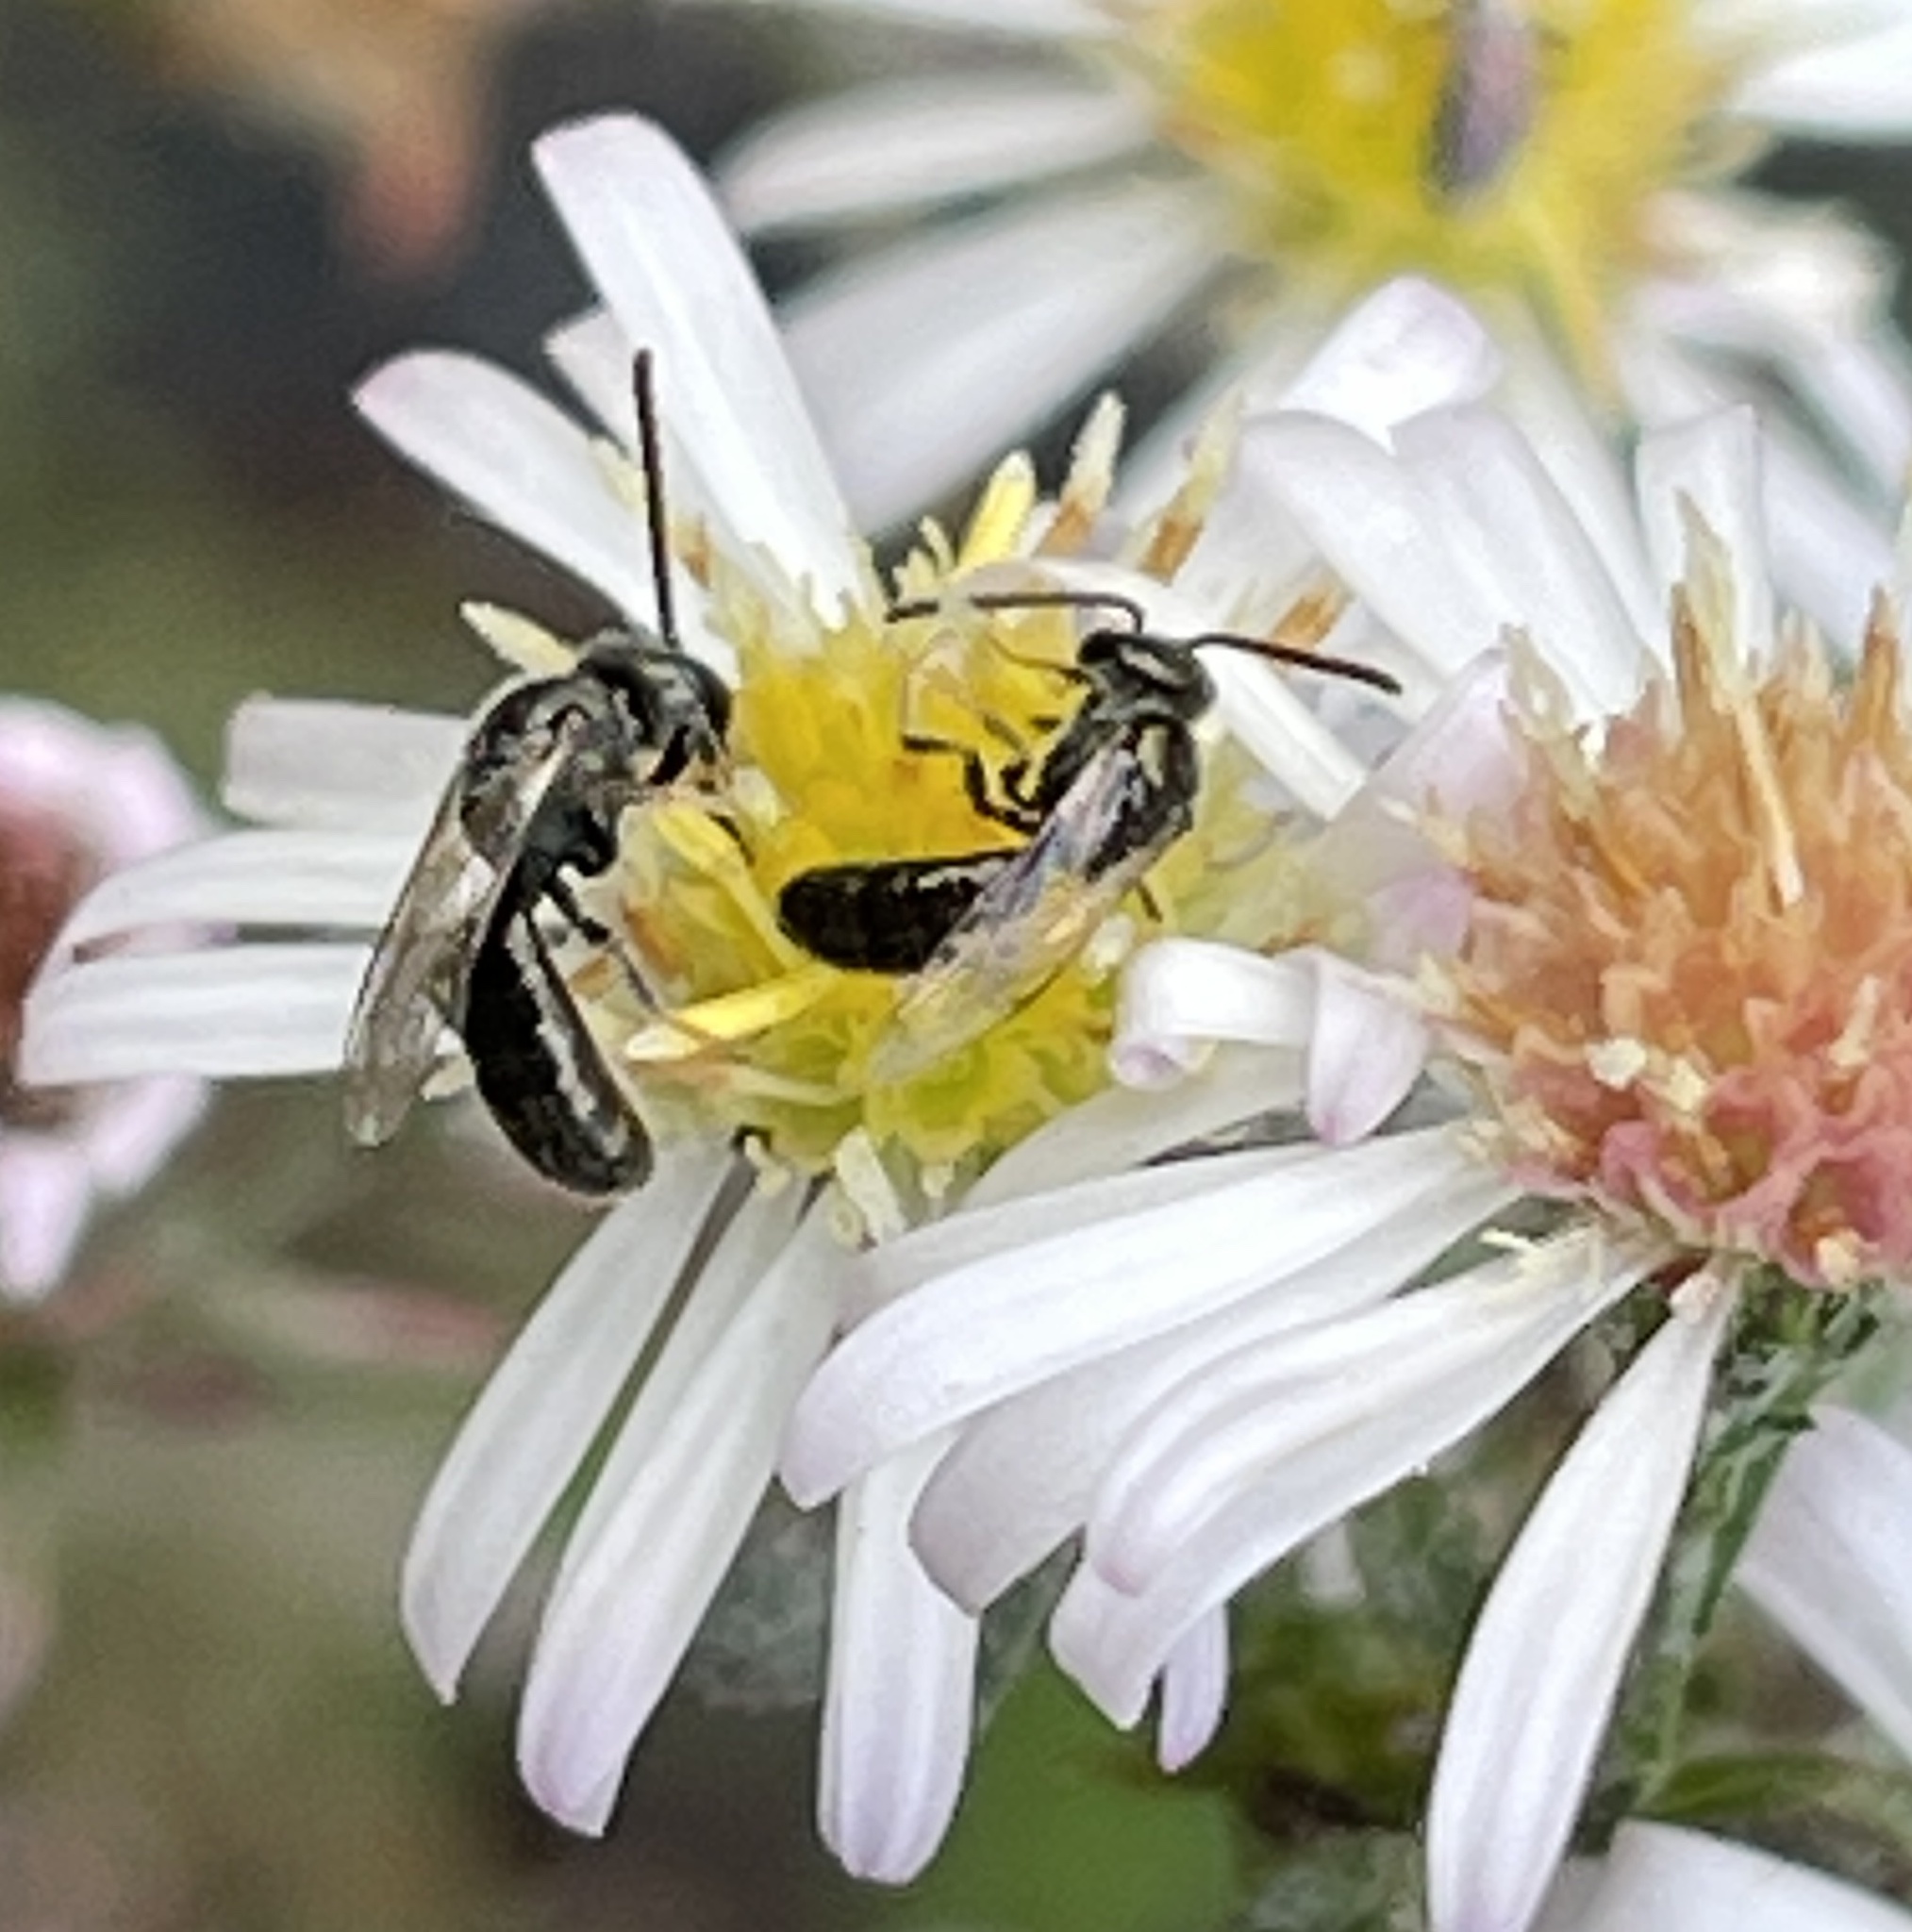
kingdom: Animalia
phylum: Arthropoda
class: Insecta
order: Hymenoptera
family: Halictidae
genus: Dialictus
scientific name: Dialictus
